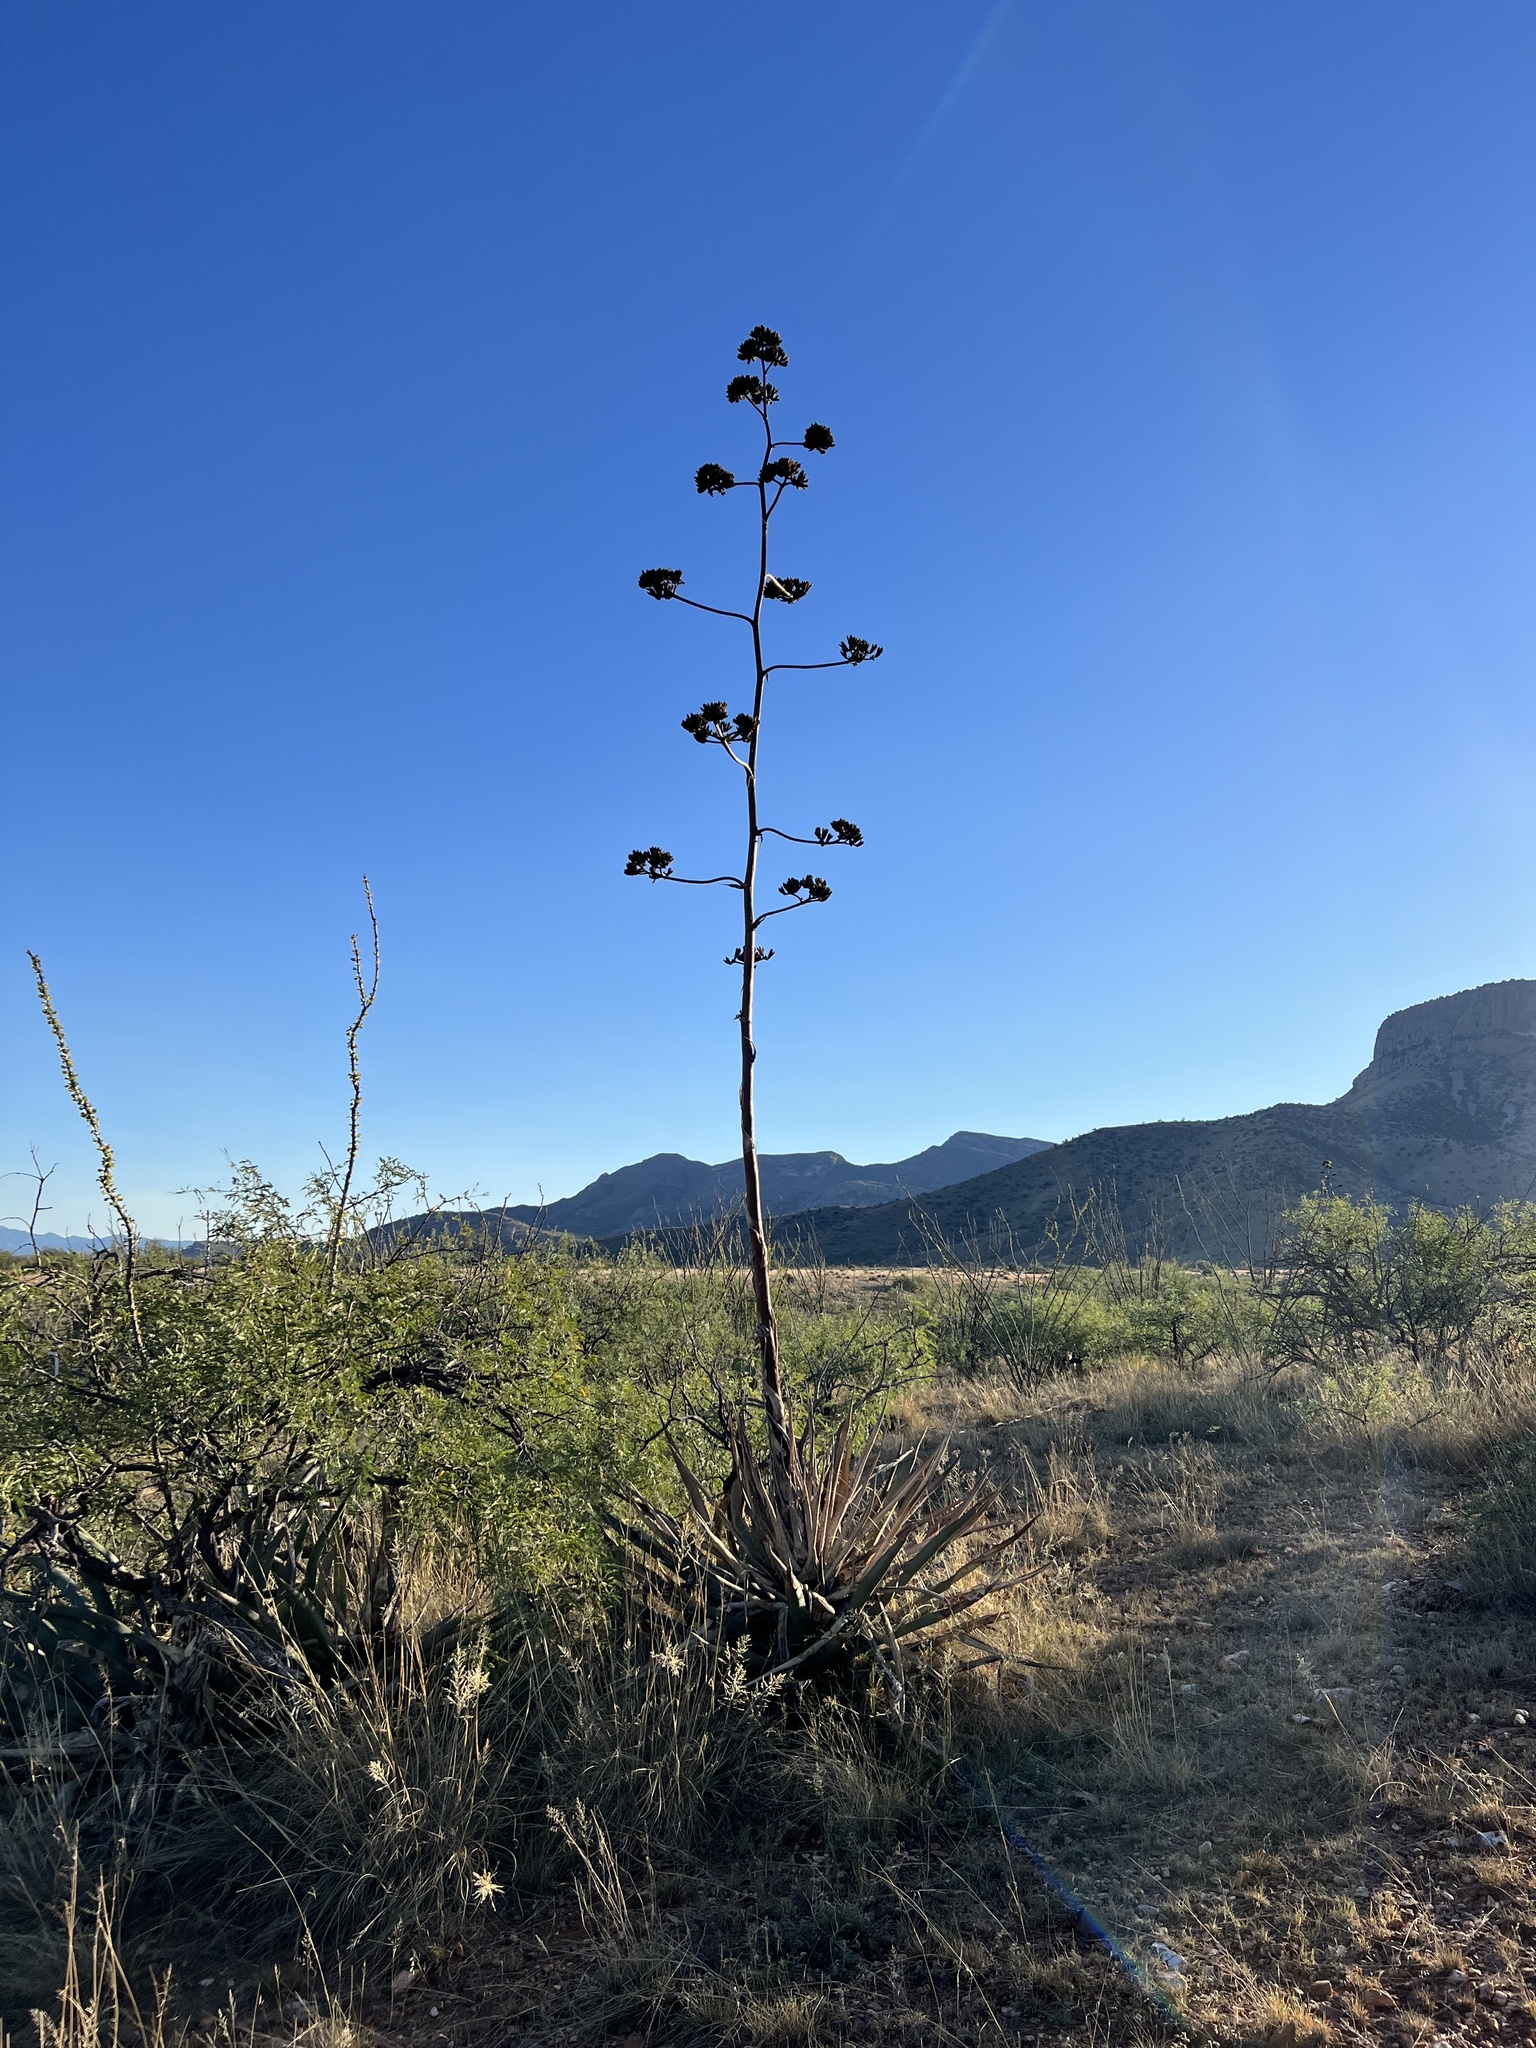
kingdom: Plantae
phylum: Tracheophyta
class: Liliopsida
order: Asparagales
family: Asparagaceae
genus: Agave
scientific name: Agave palmeri
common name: Palmer agave
